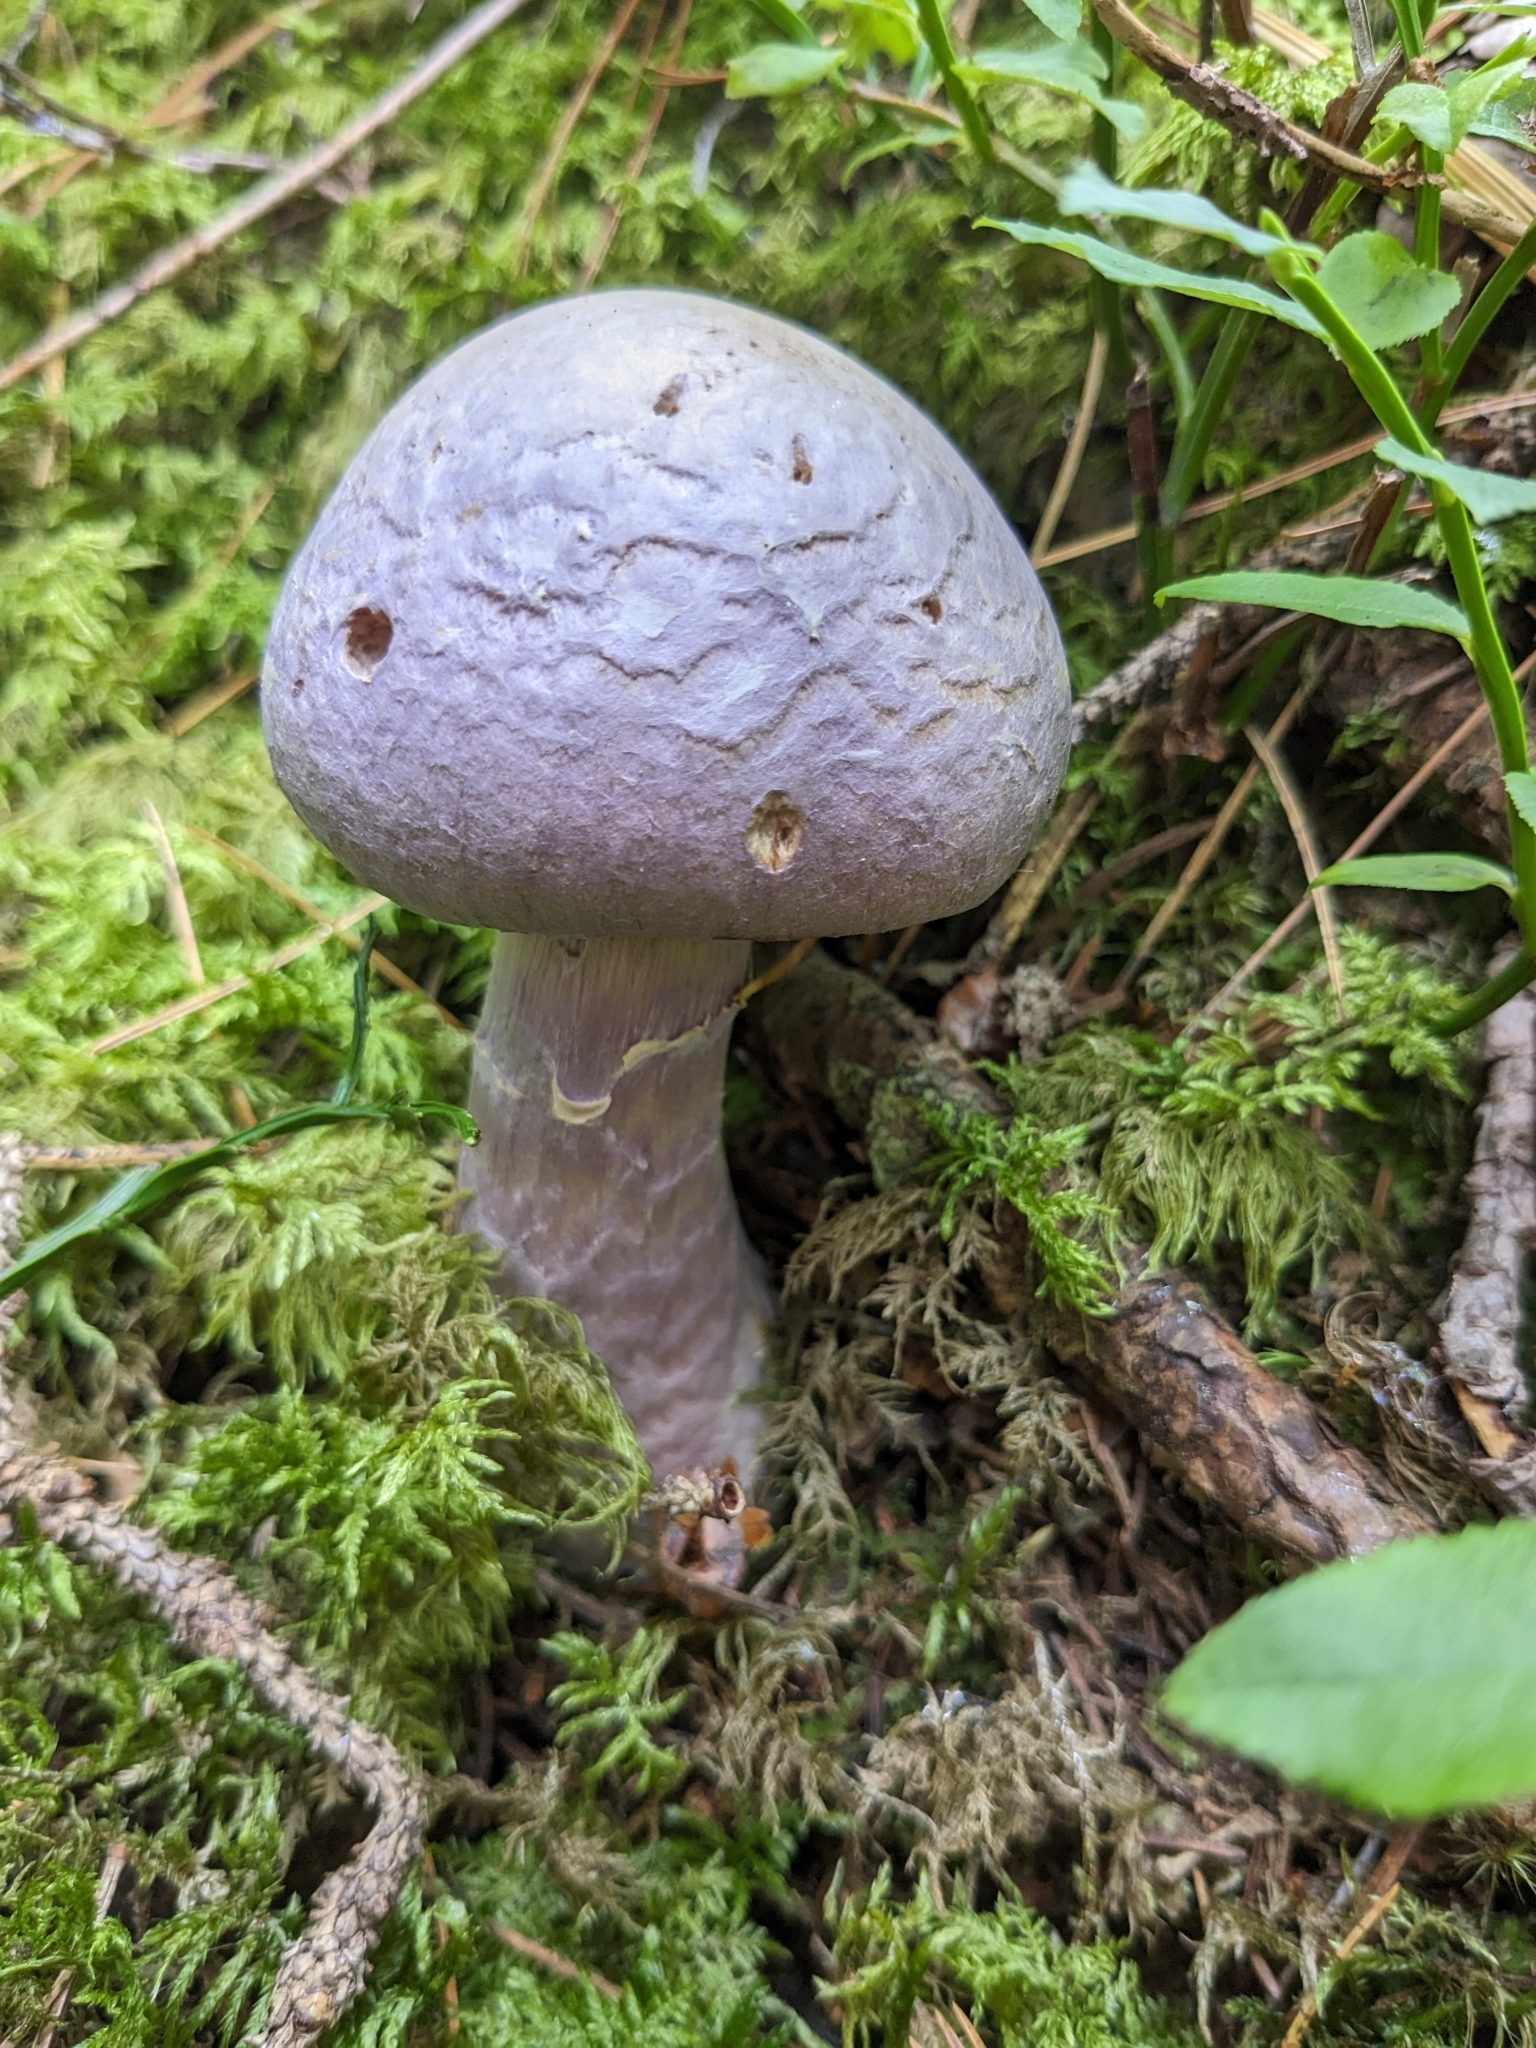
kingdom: Fungi
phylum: Basidiomycota
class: Agaricomycetes
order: Agaricales
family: Cortinariaceae
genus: Cortinarius
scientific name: Cortinarius traganus
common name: Gassy webcap
